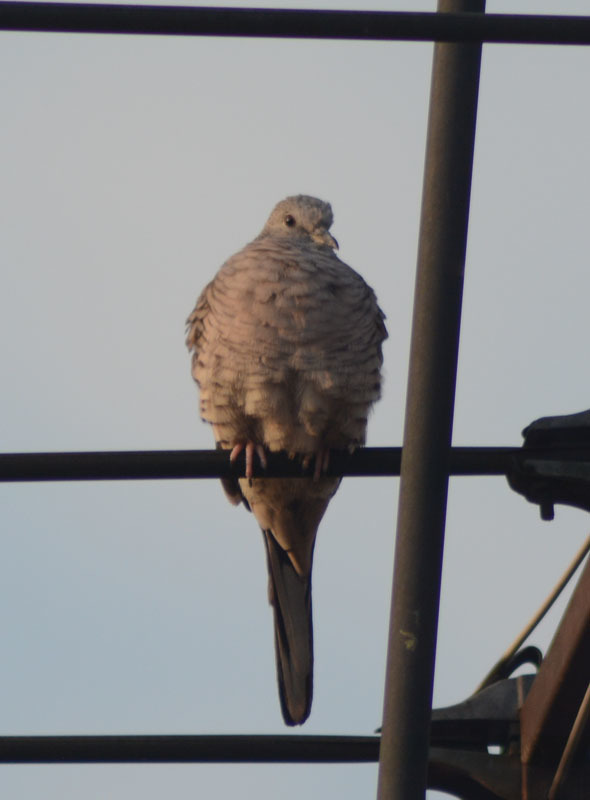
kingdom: Animalia
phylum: Chordata
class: Aves
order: Columbiformes
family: Columbidae
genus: Columbina
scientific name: Columbina inca
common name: Inca dove
